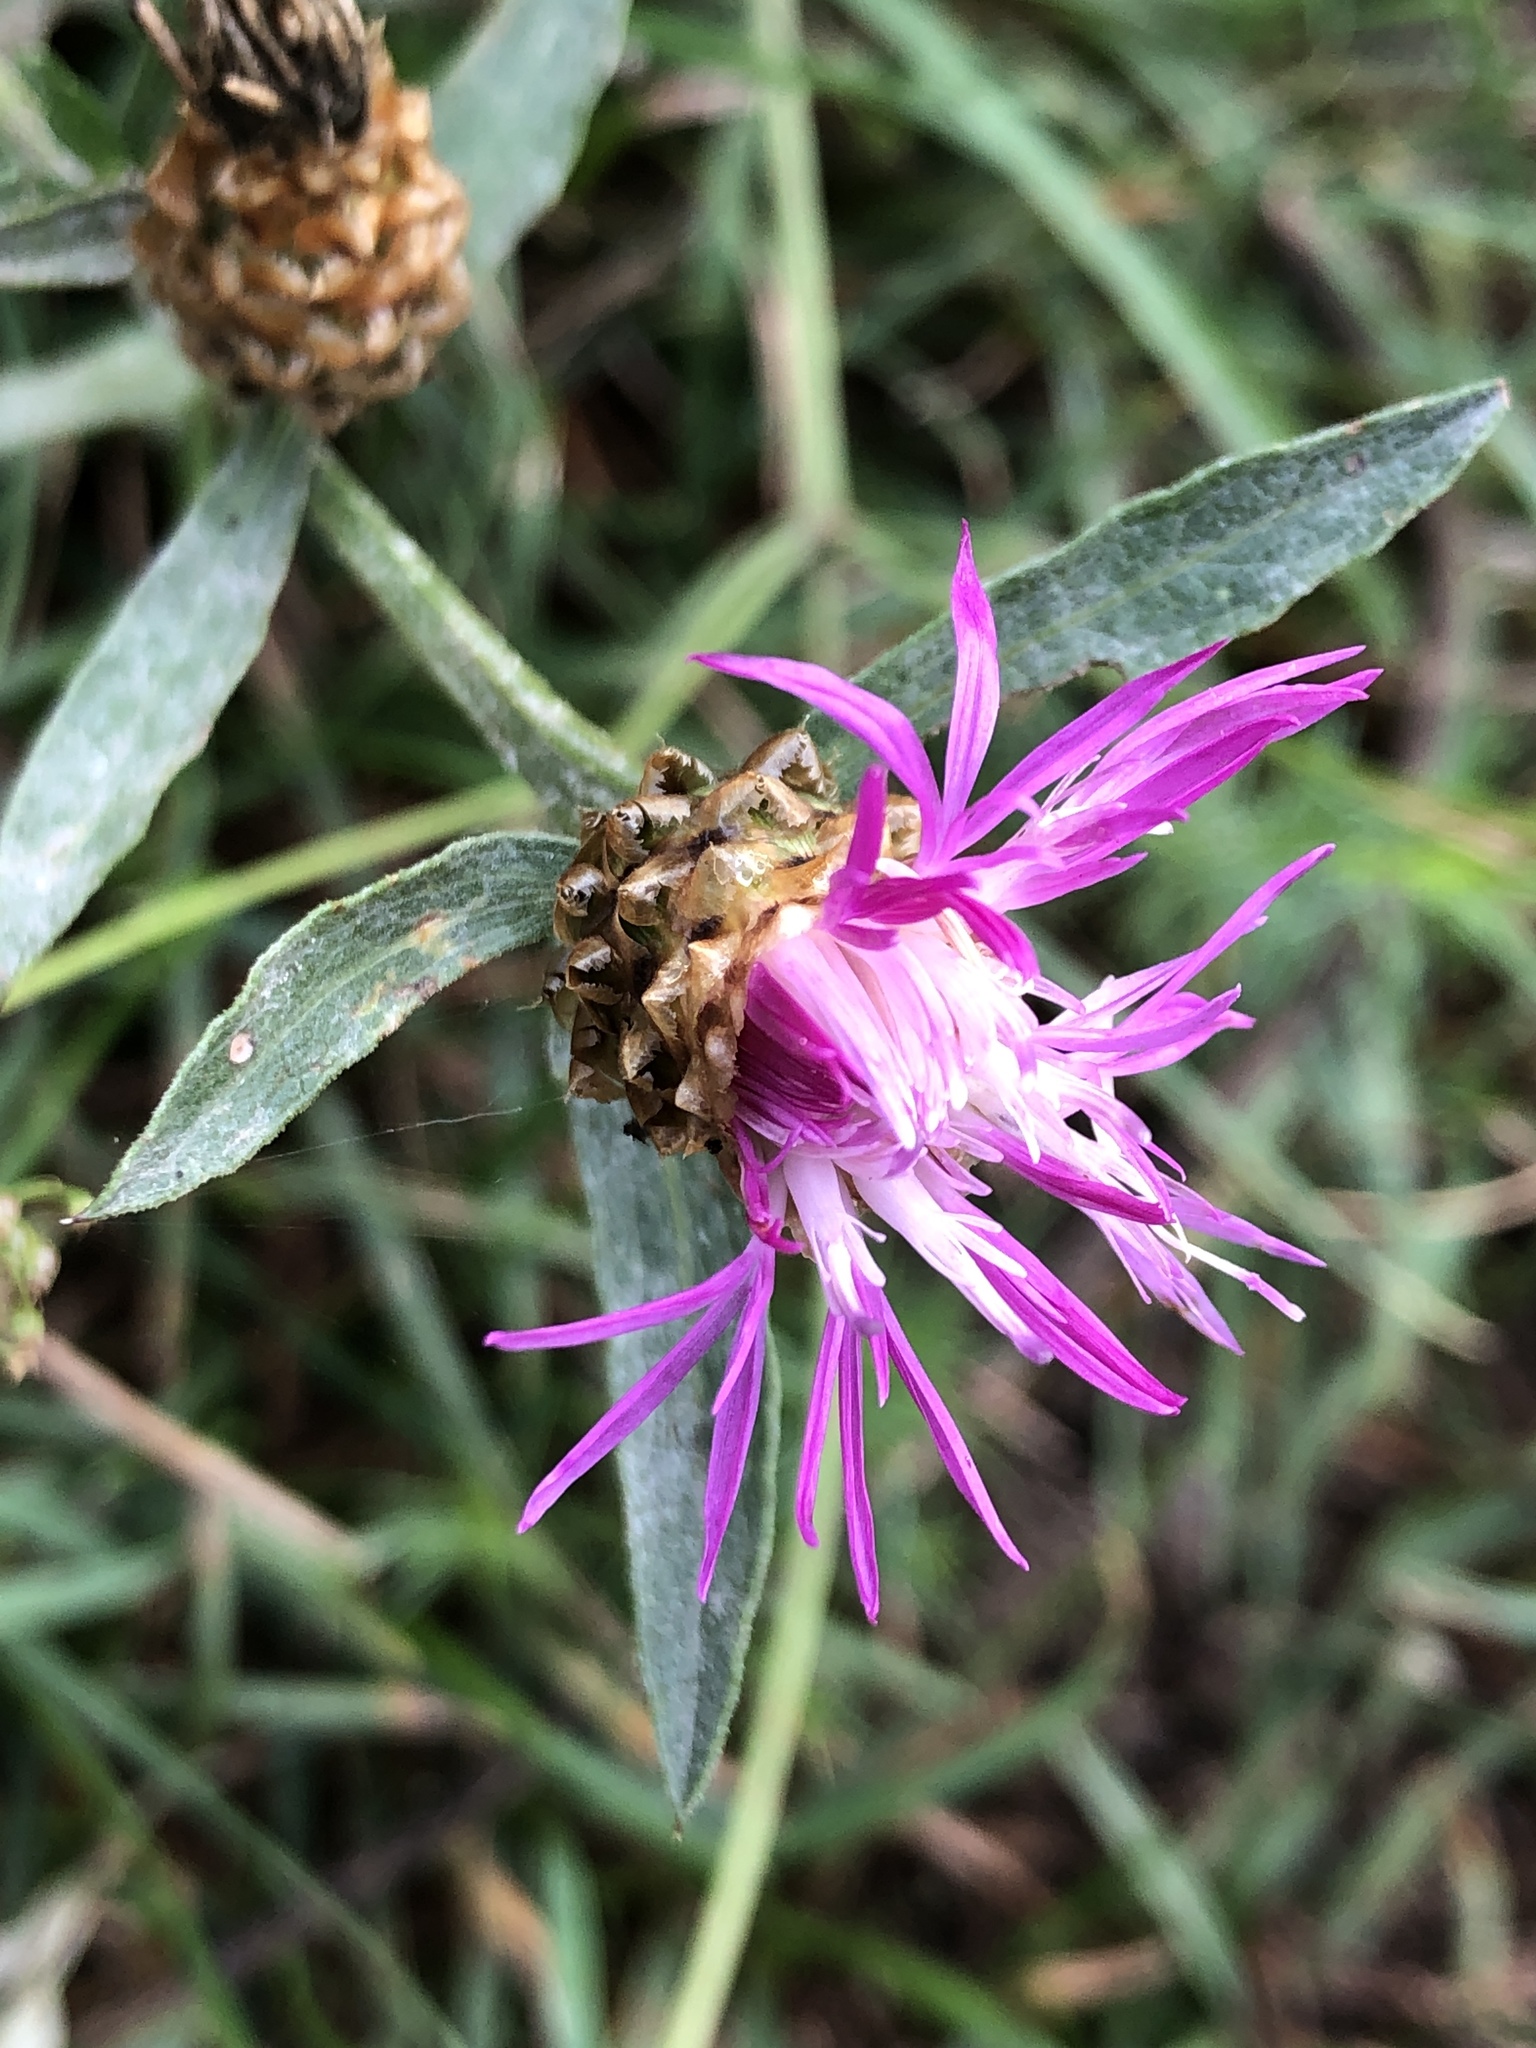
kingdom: Plantae
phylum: Tracheophyta
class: Magnoliopsida
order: Asterales
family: Asteraceae
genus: Centaurea
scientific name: Centaurea jacea
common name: Brown knapweed
